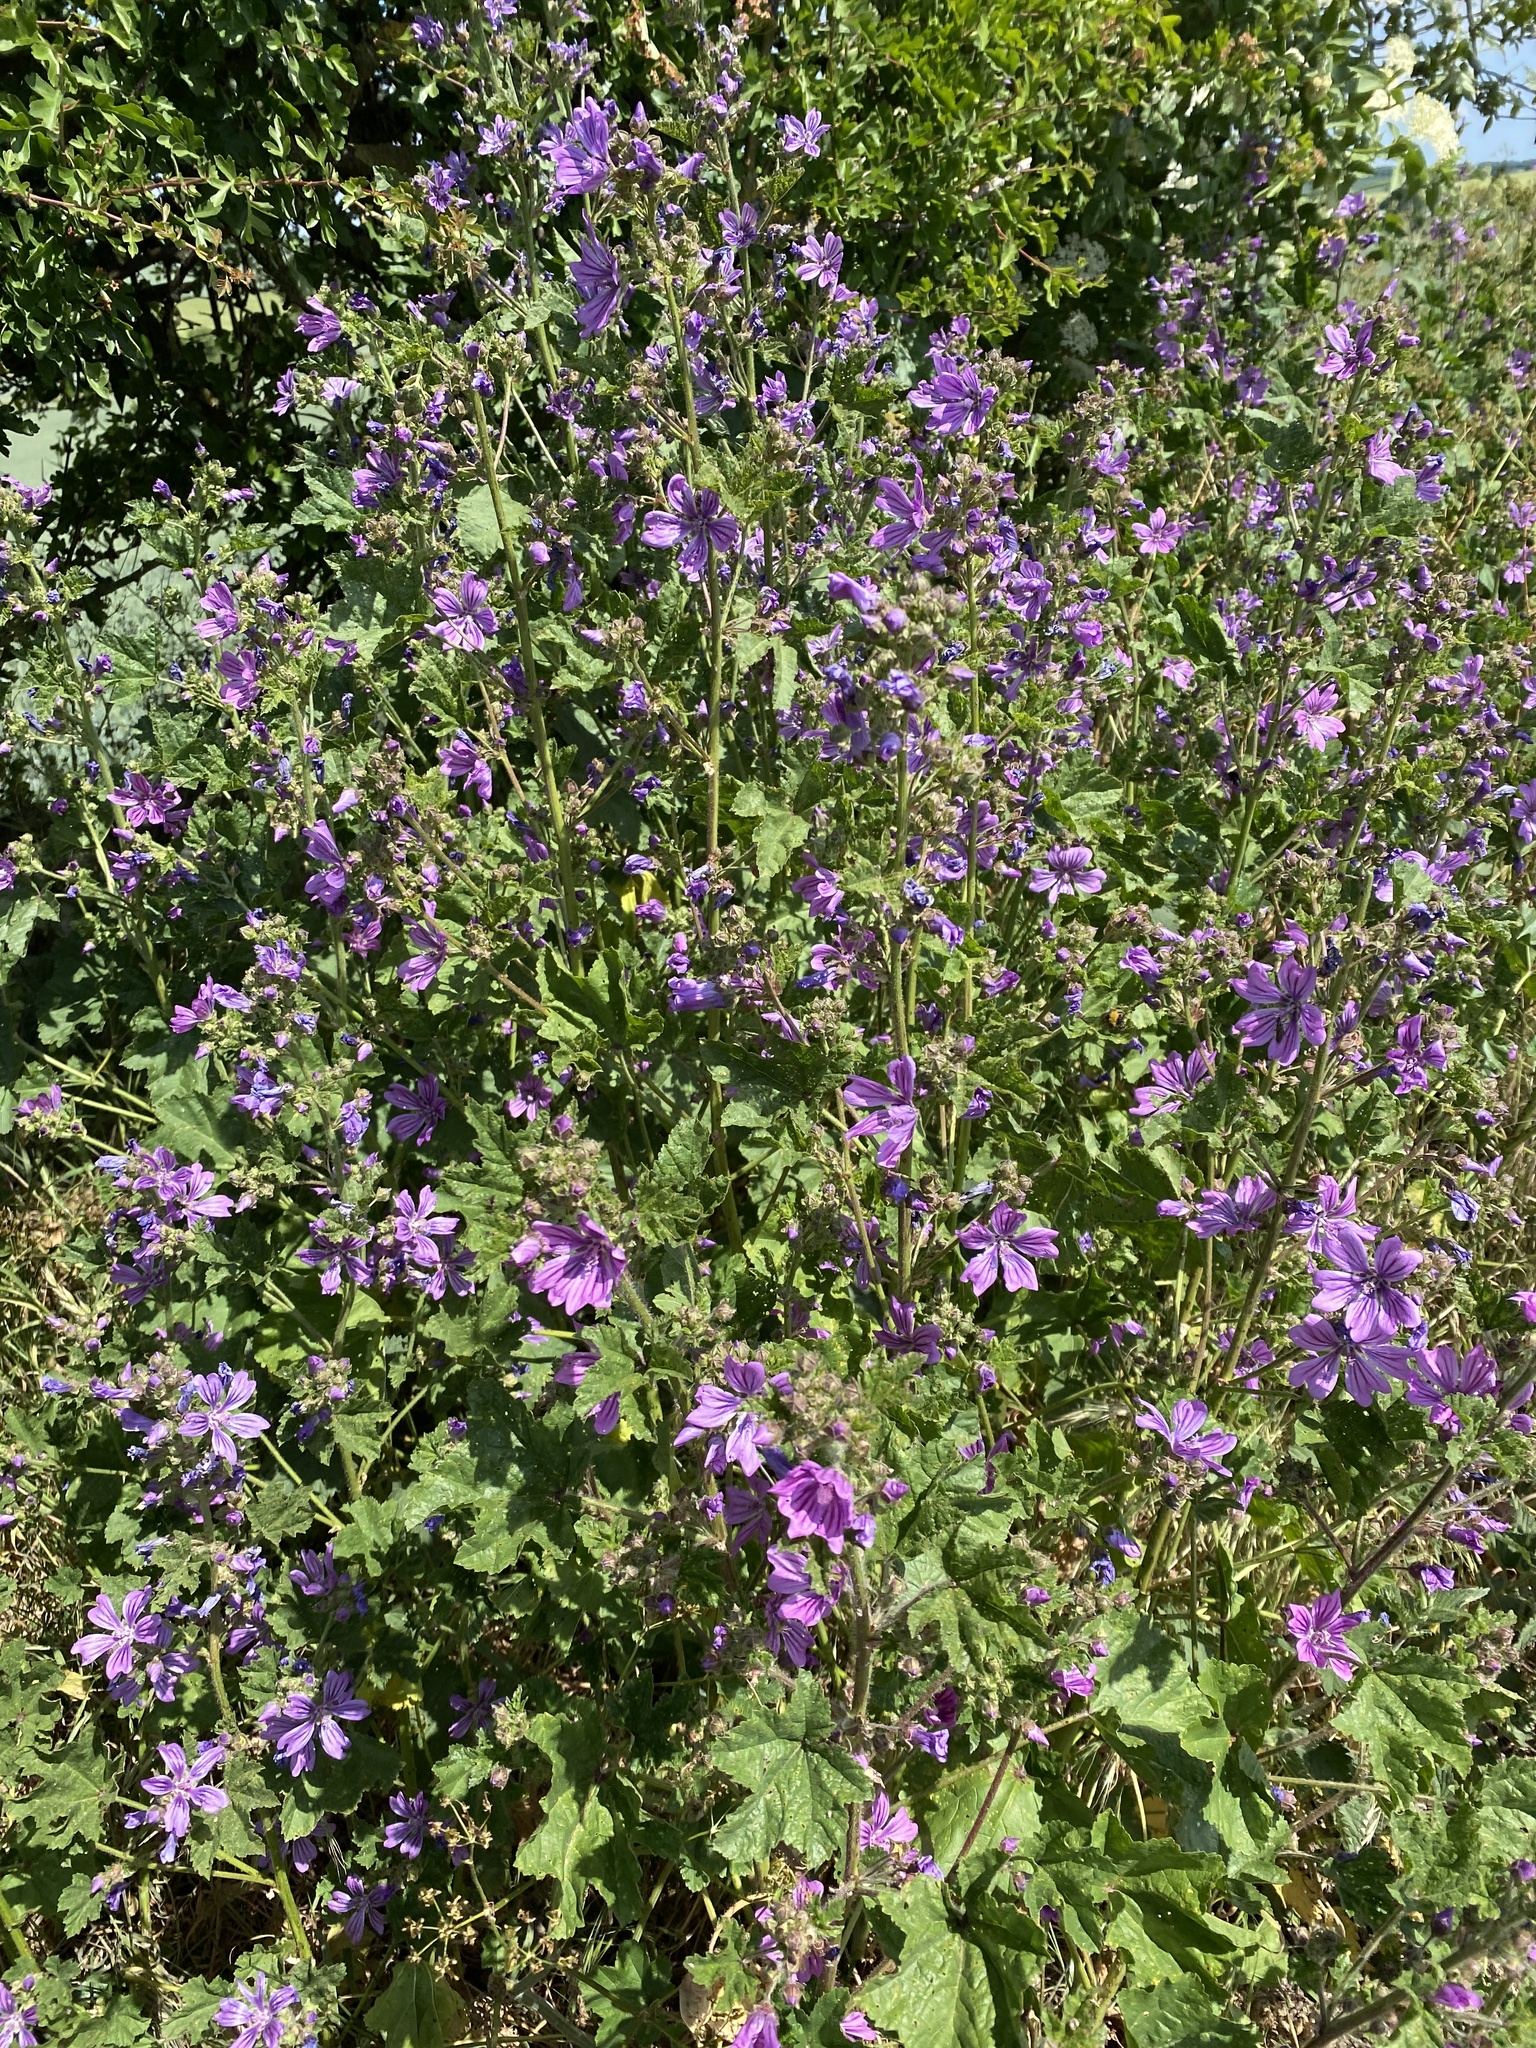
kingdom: Plantae
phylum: Tracheophyta
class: Magnoliopsida
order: Malvales
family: Malvaceae
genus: Malva
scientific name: Malva sylvestris
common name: Common mallow
